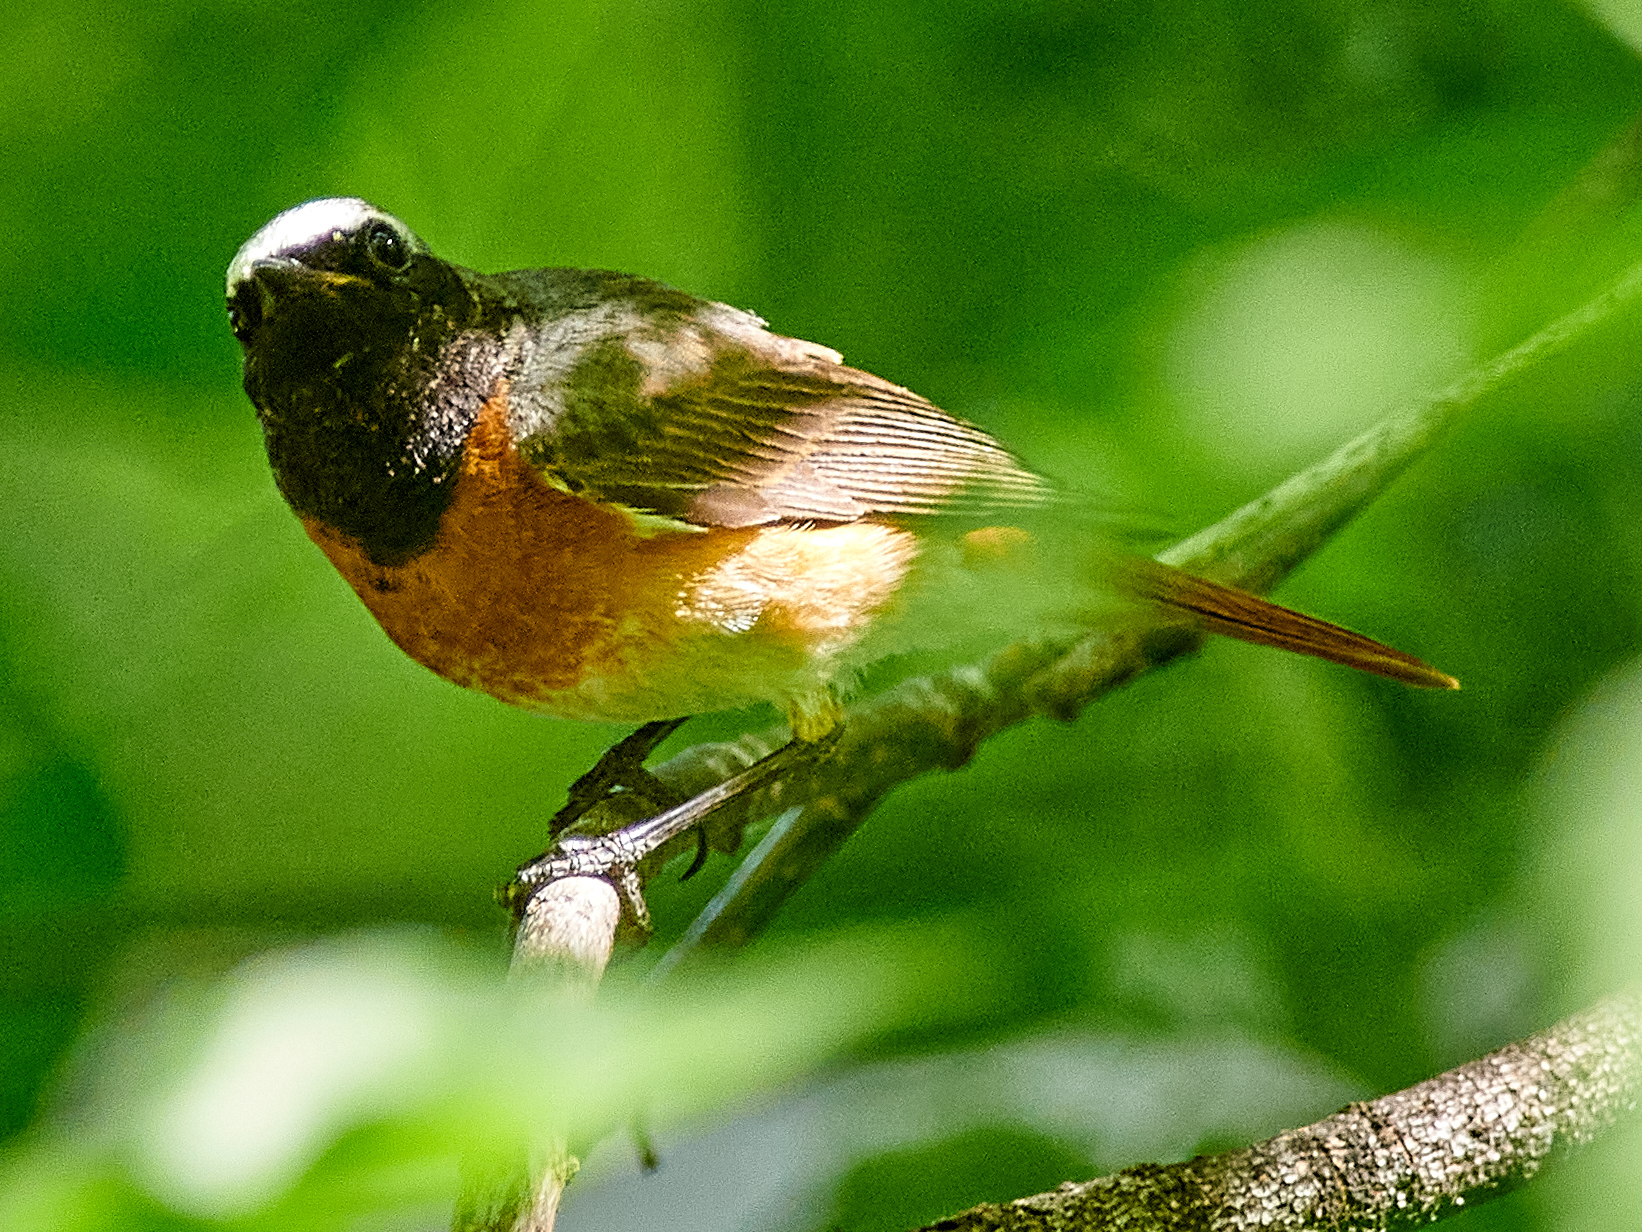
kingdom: Animalia
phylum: Chordata
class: Aves
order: Passeriformes
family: Muscicapidae
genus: Phoenicurus
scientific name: Phoenicurus phoenicurus
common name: Common redstart
